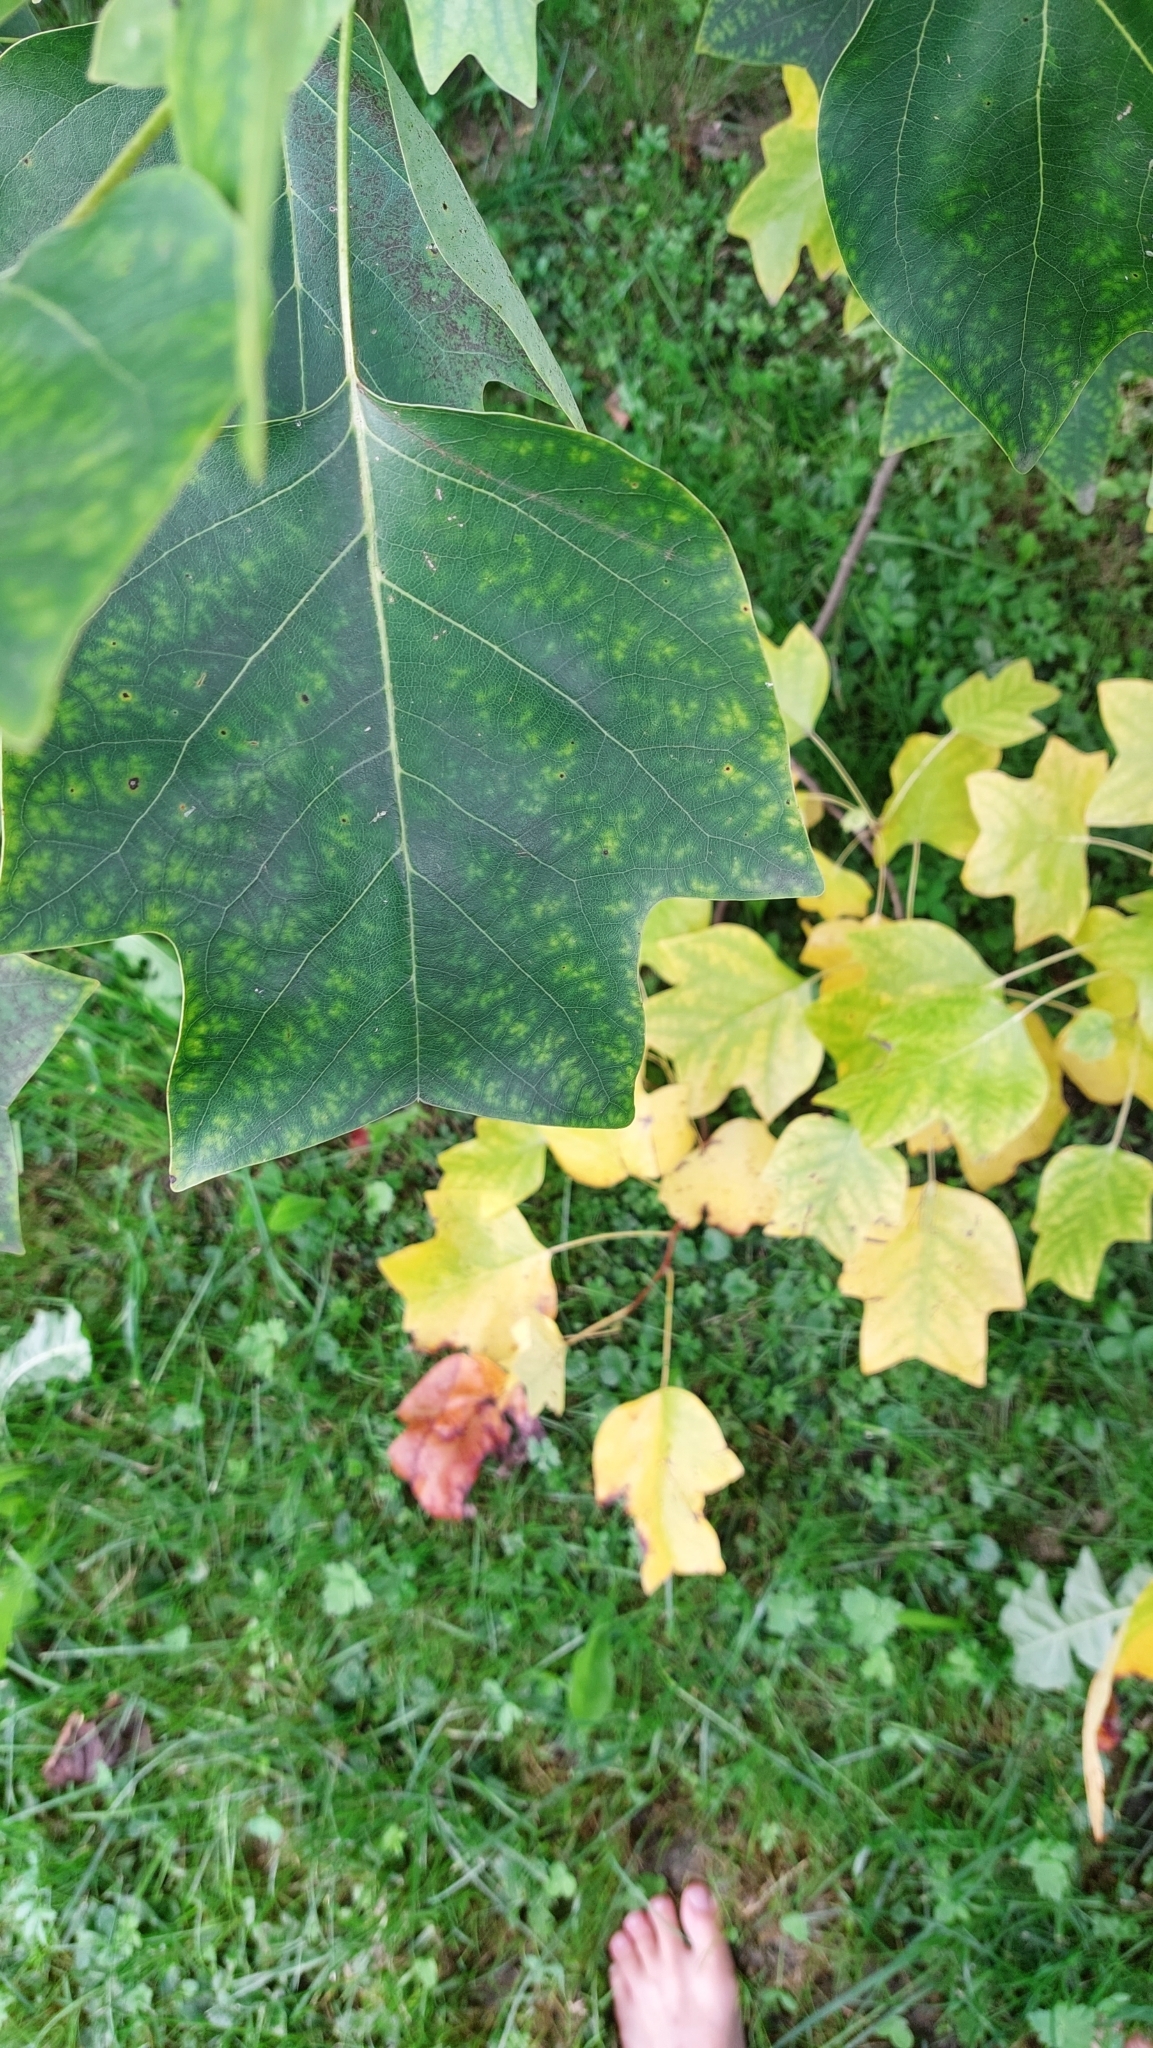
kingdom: Plantae
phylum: Tracheophyta
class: Magnoliopsida
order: Magnoliales
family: Magnoliaceae
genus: Liriodendron
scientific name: Liriodendron tulipifera
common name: Tulip tree
